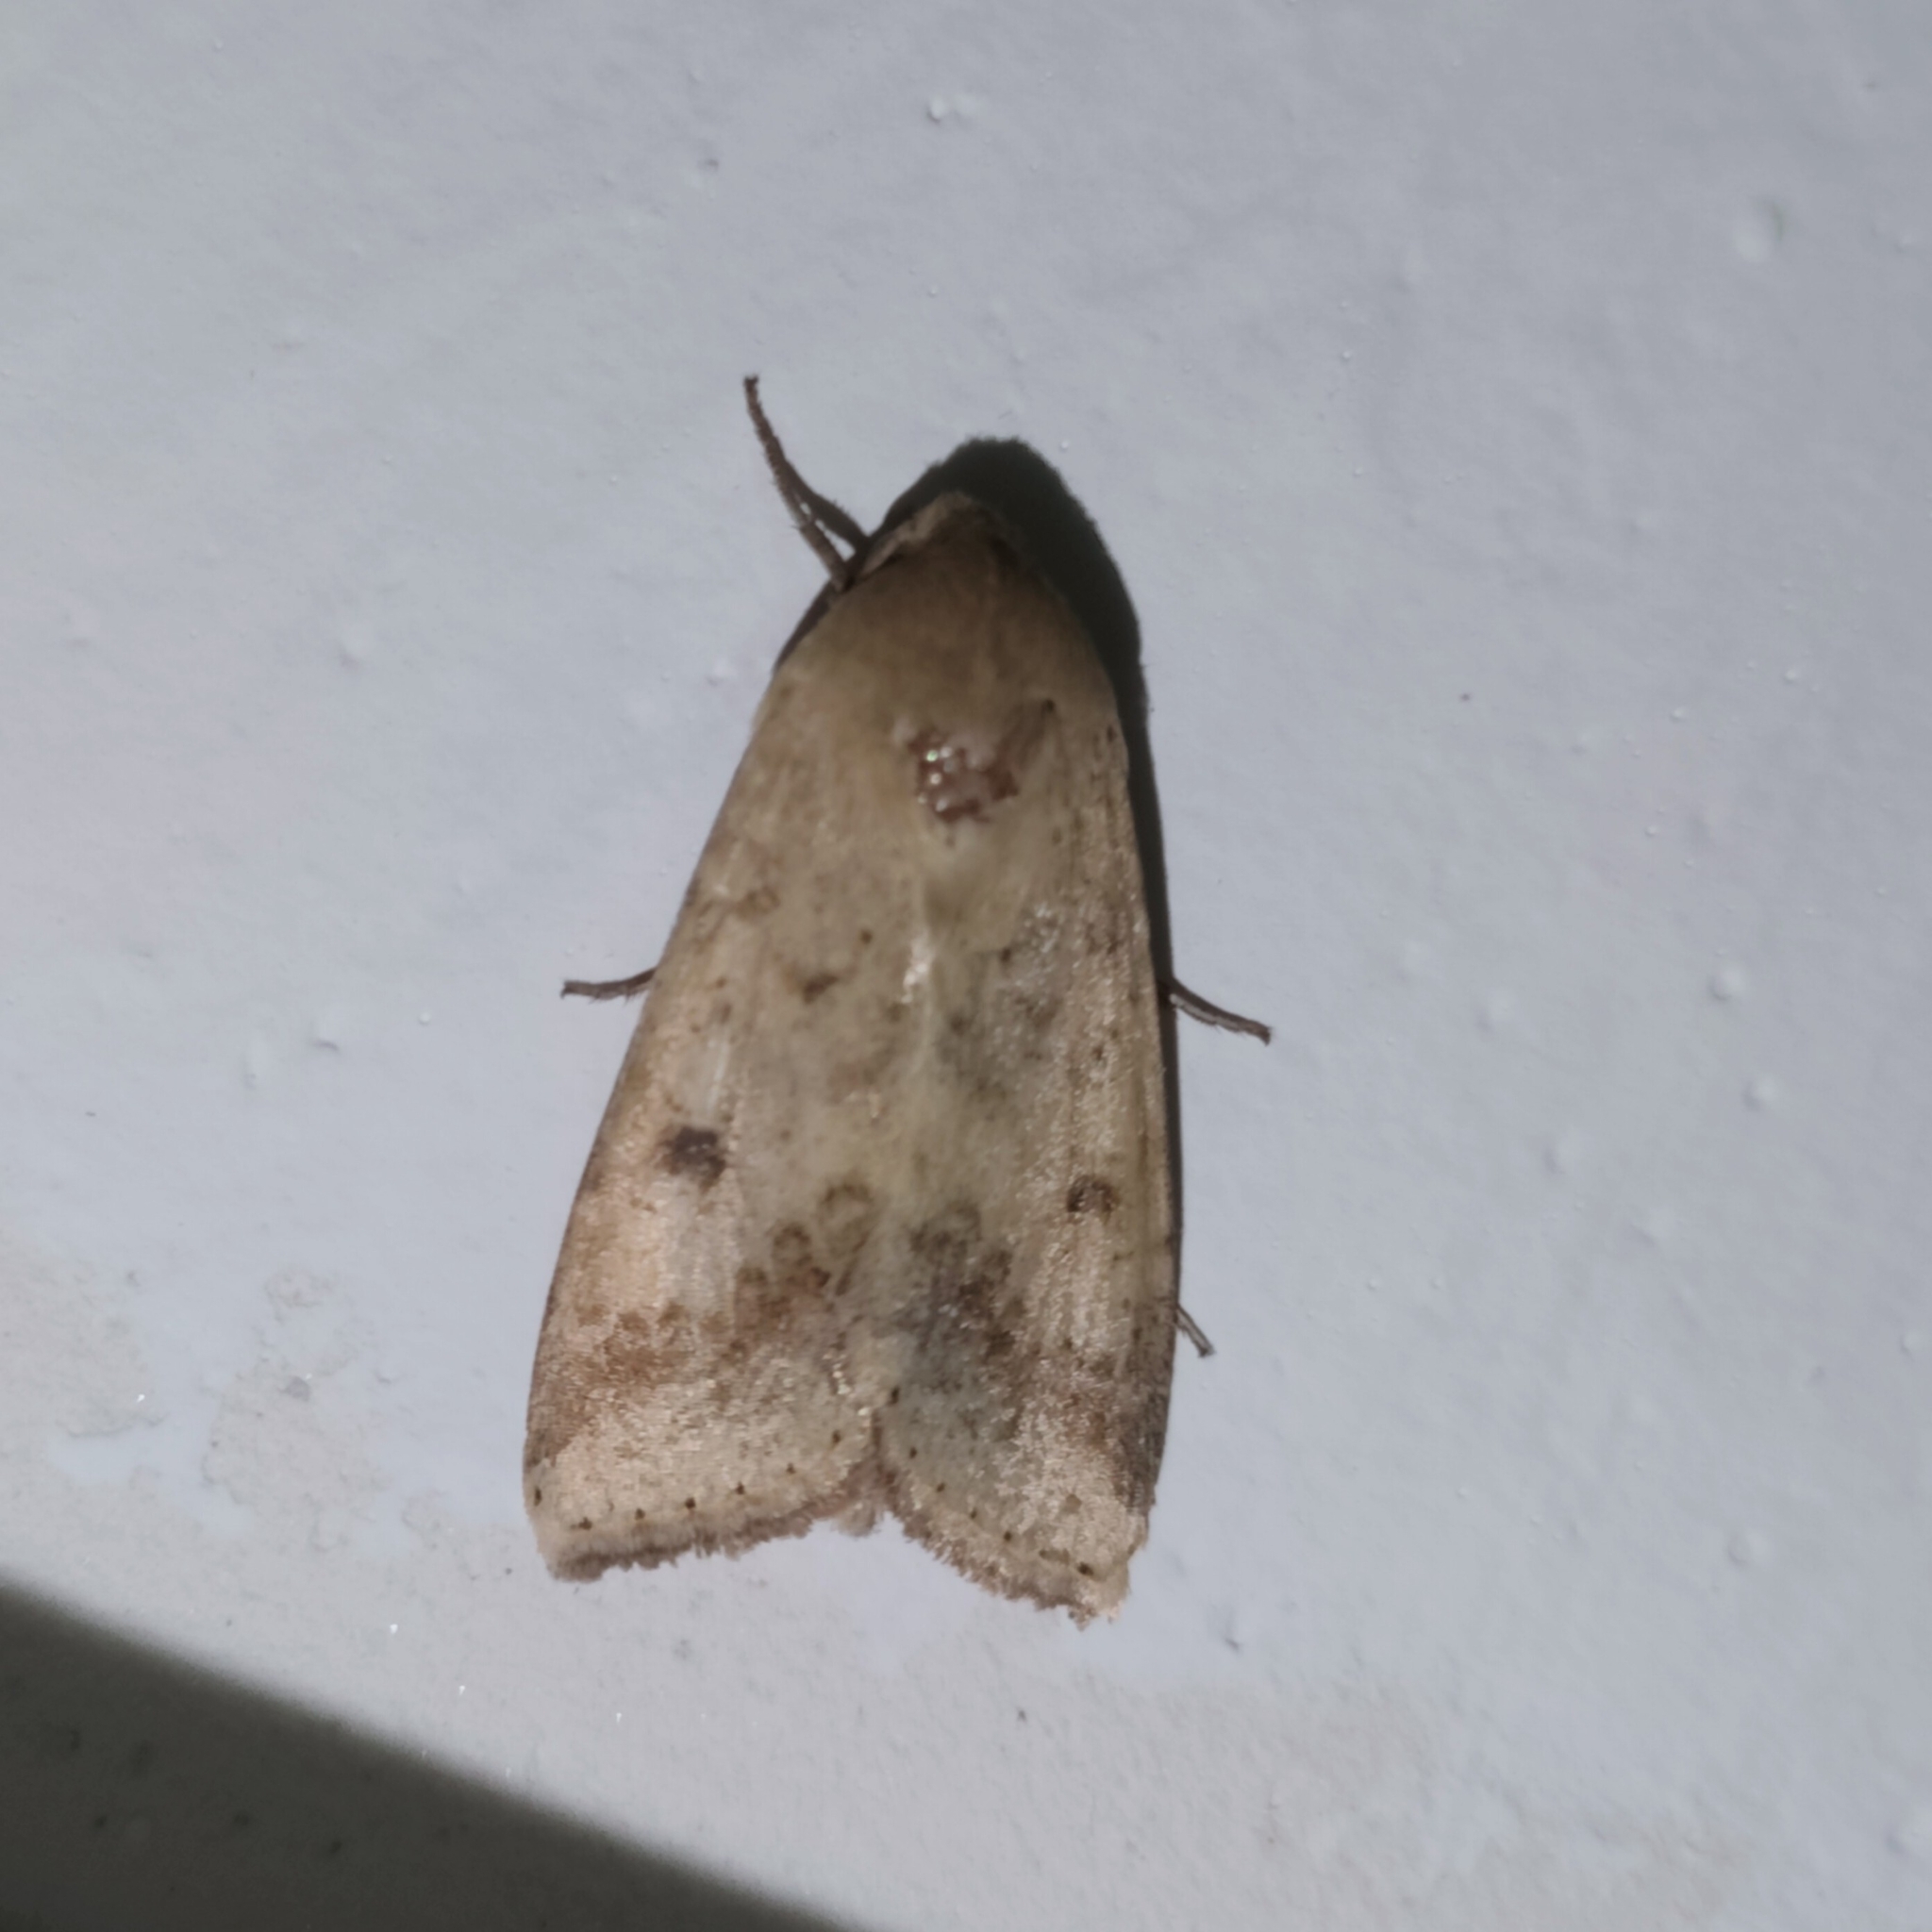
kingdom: Animalia
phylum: Arthropoda
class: Insecta
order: Lepidoptera
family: Noctuidae
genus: Helicoverpa
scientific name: Helicoverpa armigera
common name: Cotton bollworm
